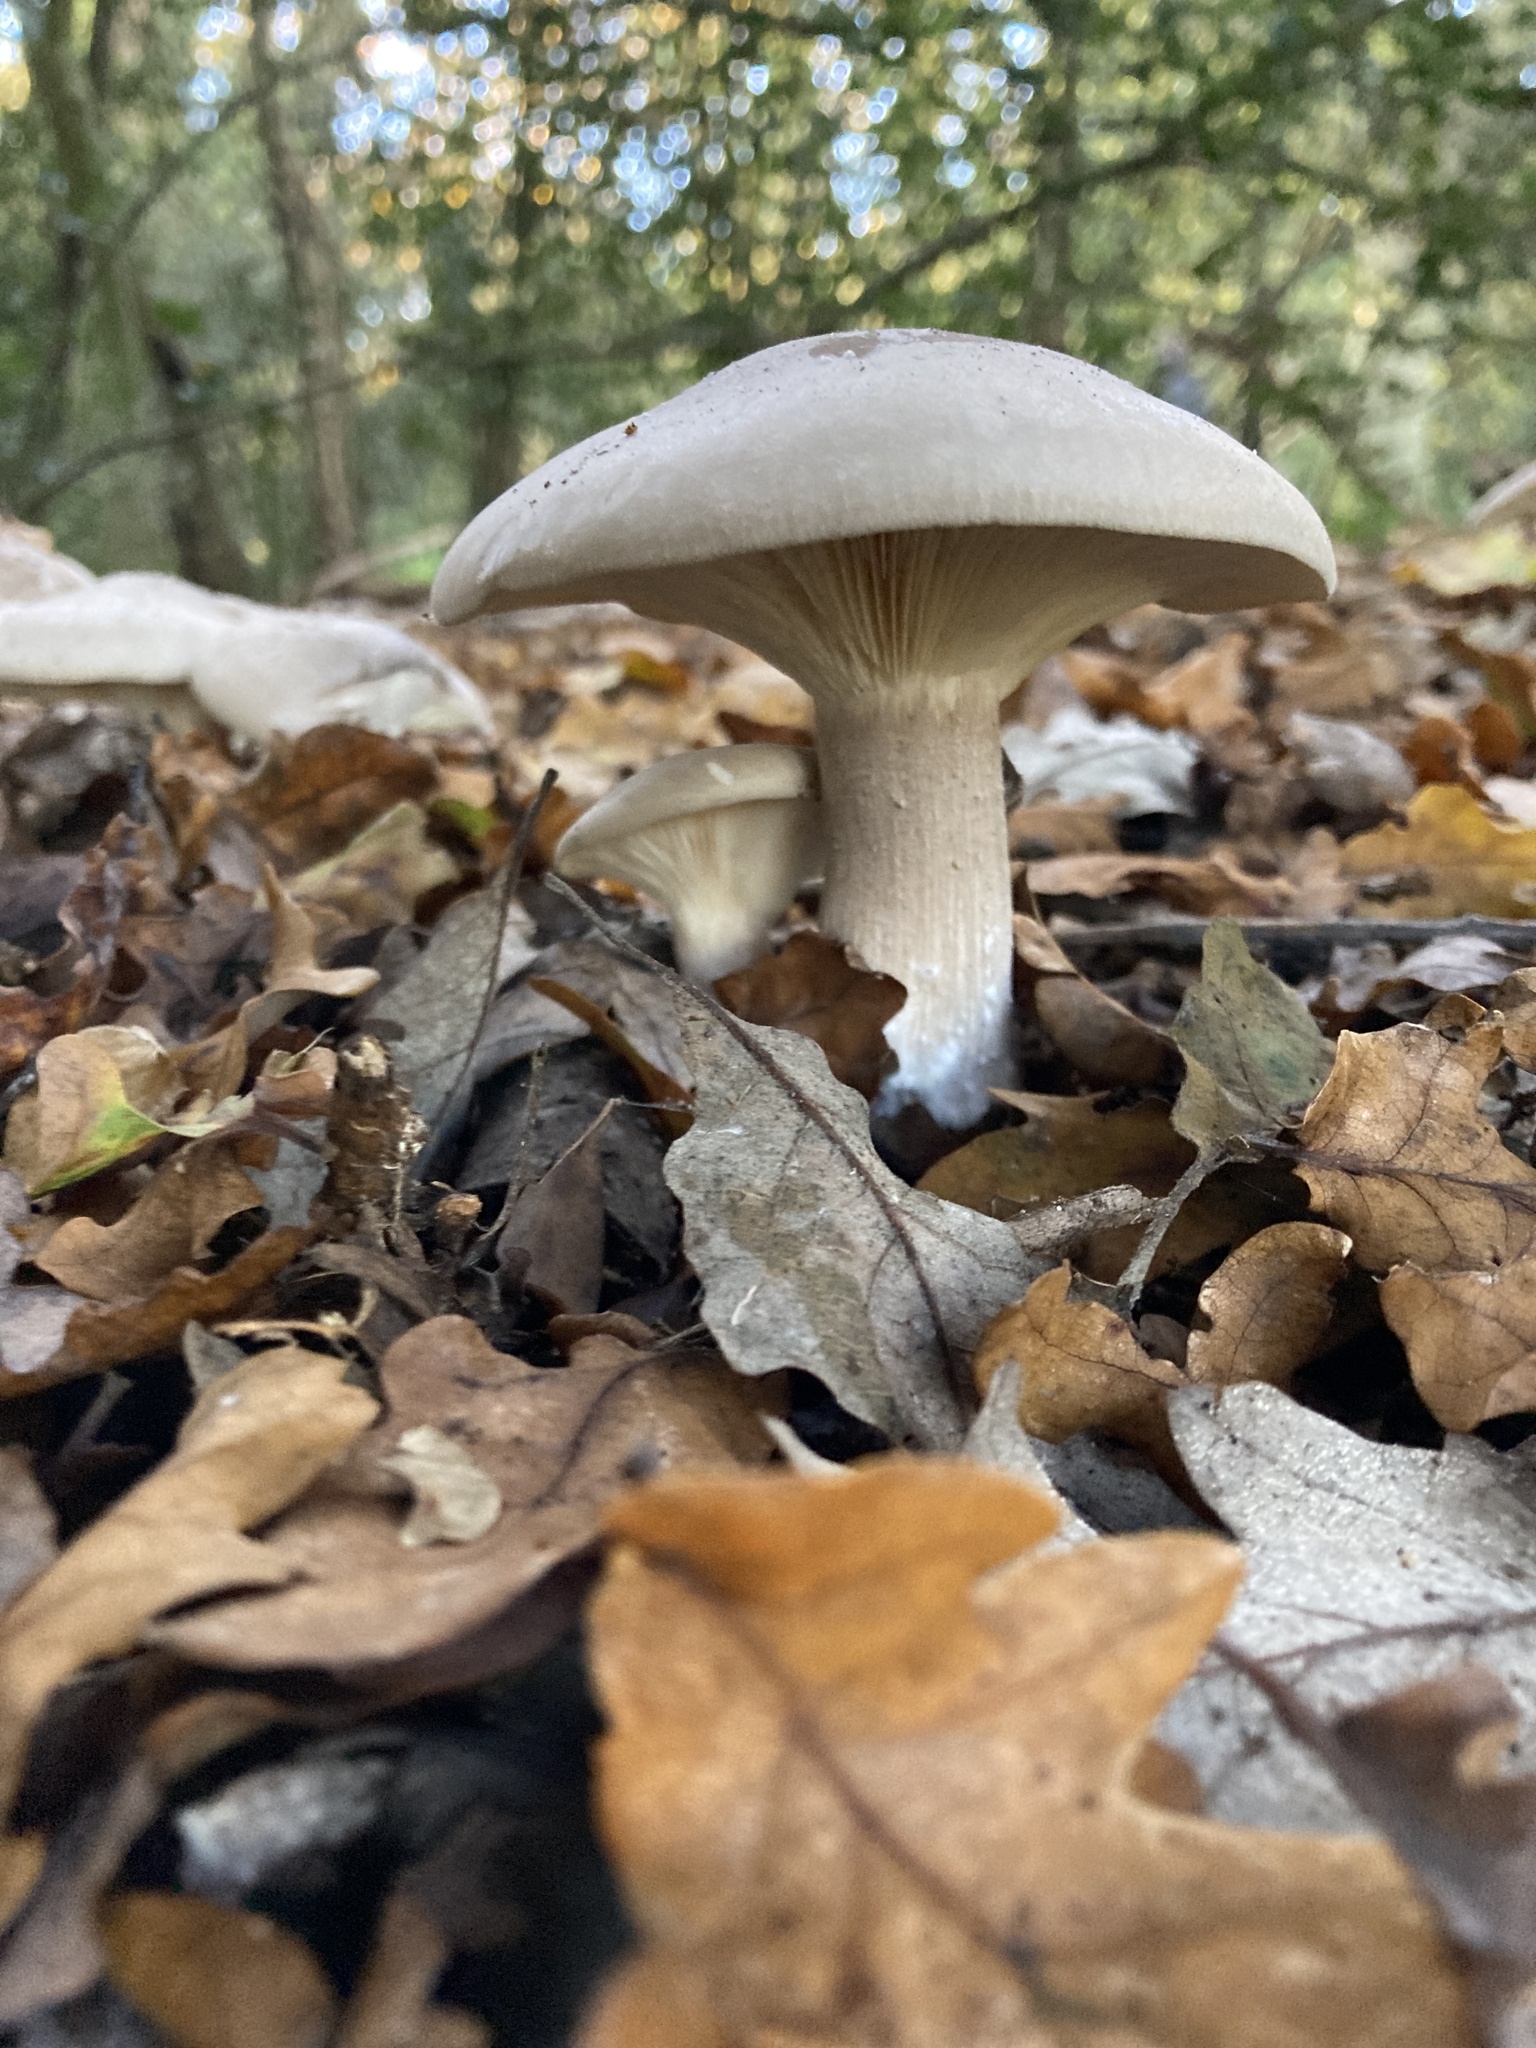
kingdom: Fungi
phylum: Basidiomycota
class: Agaricomycetes
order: Agaricales
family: Tricholomataceae
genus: Clitocybe
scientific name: Clitocybe nebularis
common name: Clouded agaric
